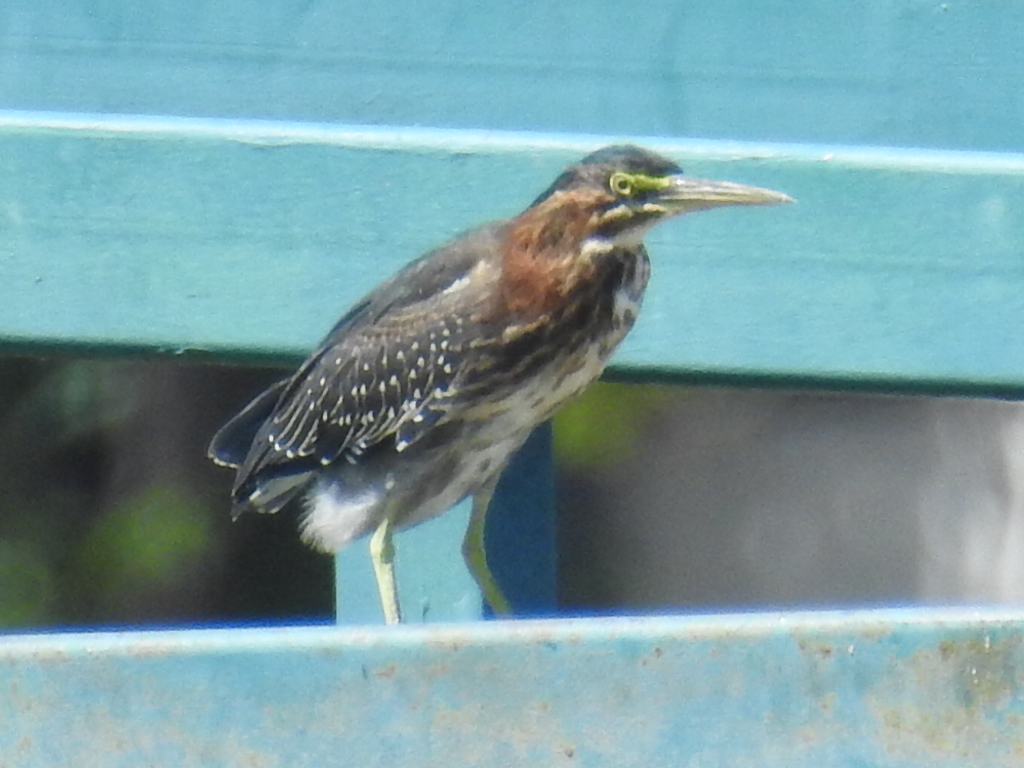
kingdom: Animalia
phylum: Chordata
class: Aves
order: Pelecaniformes
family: Ardeidae
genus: Butorides
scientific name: Butorides virescens
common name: Green heron
